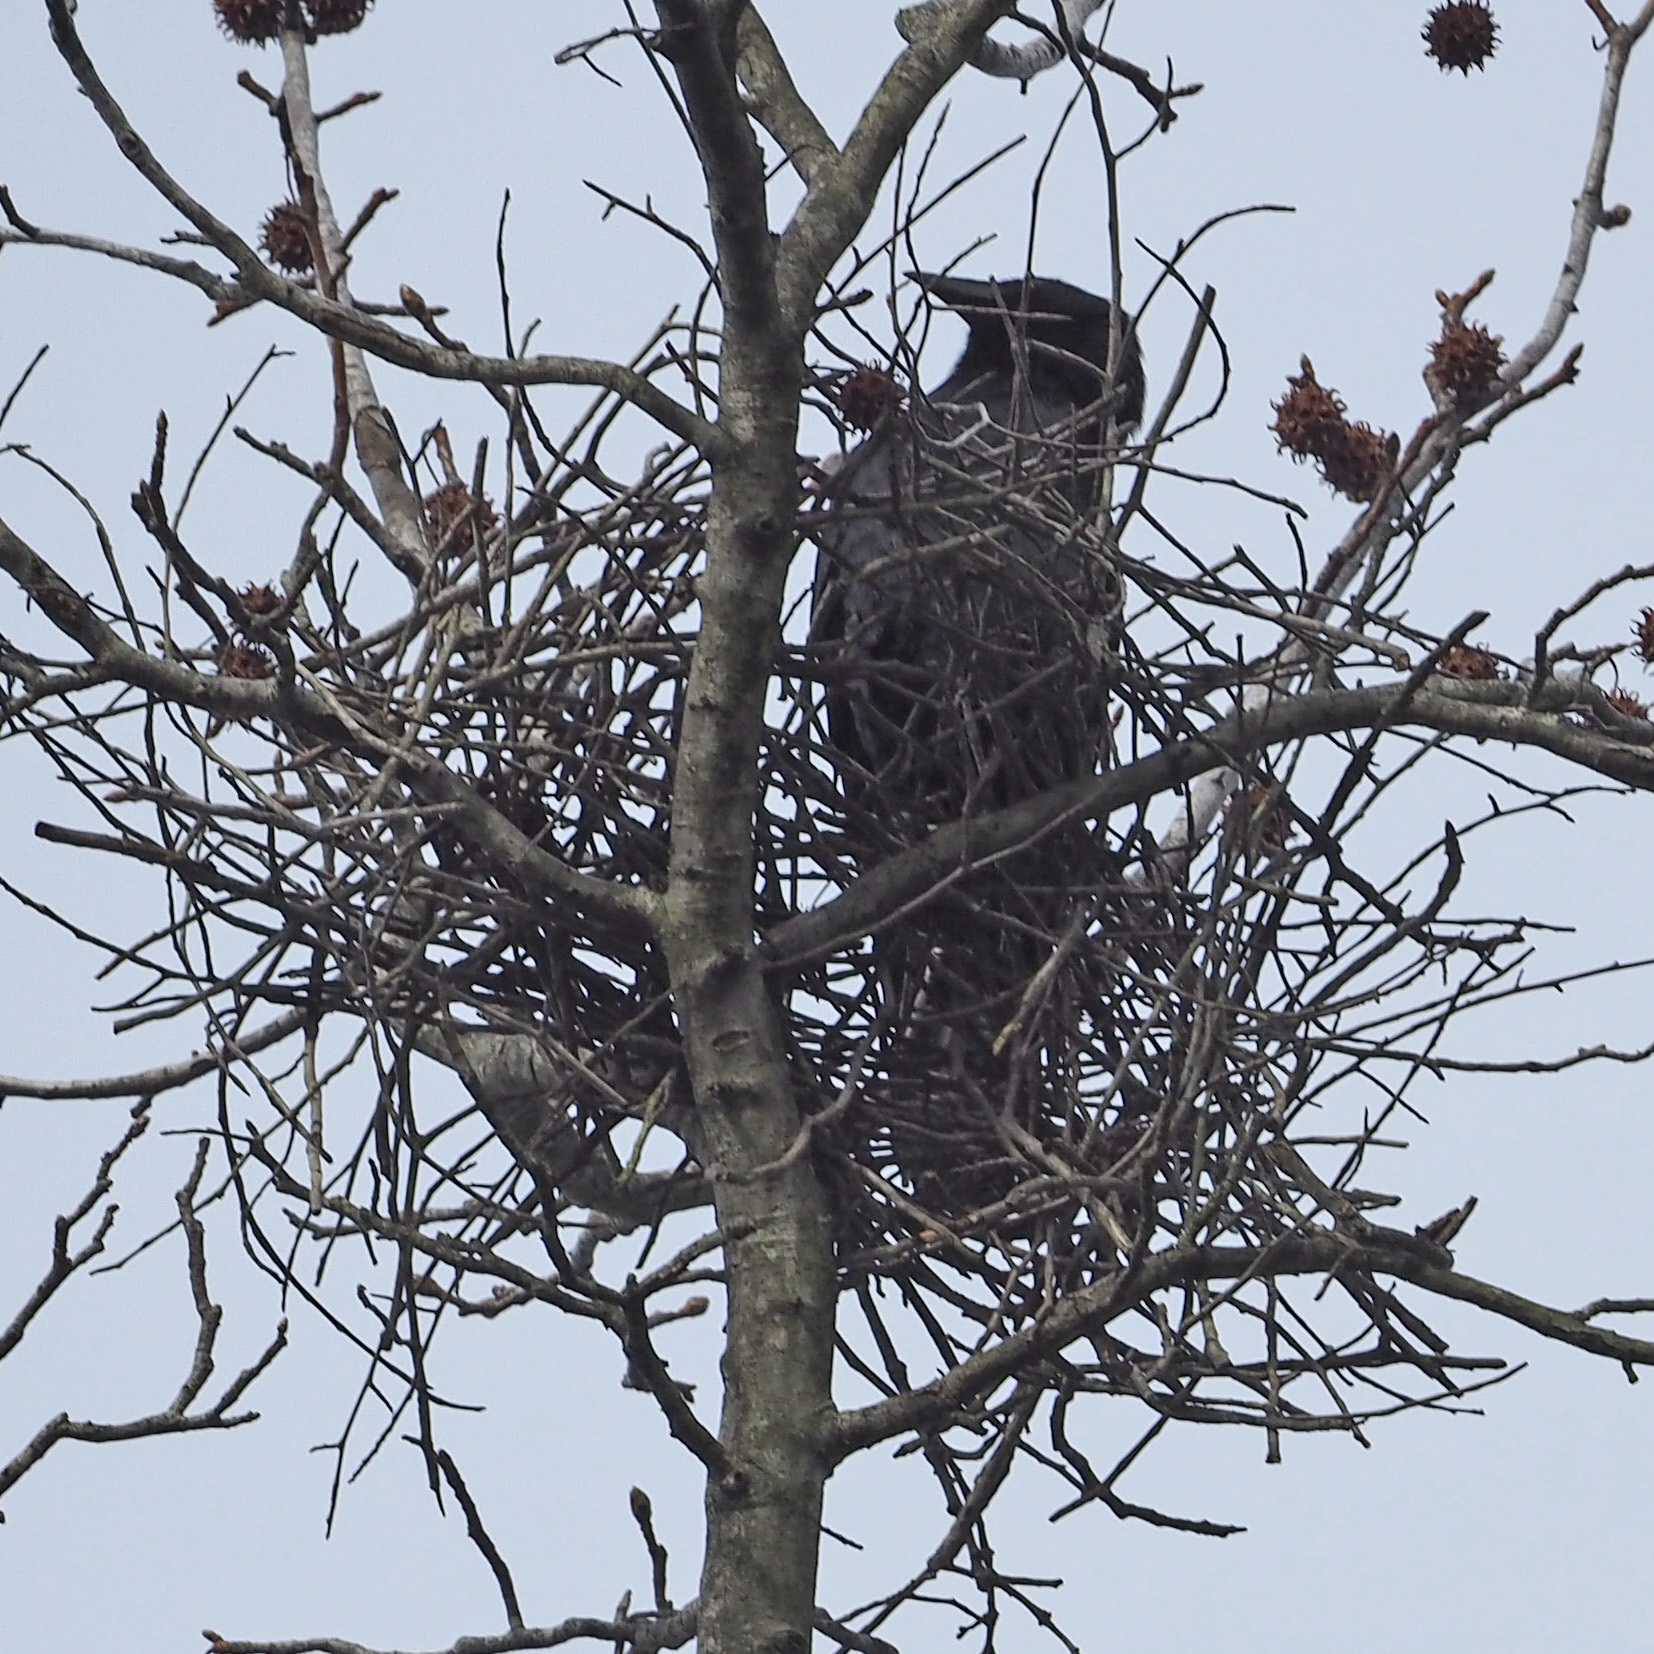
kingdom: Animalia
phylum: Chordata
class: Aves
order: Passeriformes
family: Corvidae
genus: Corvus
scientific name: Corvus ossifragus
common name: Fish crow
